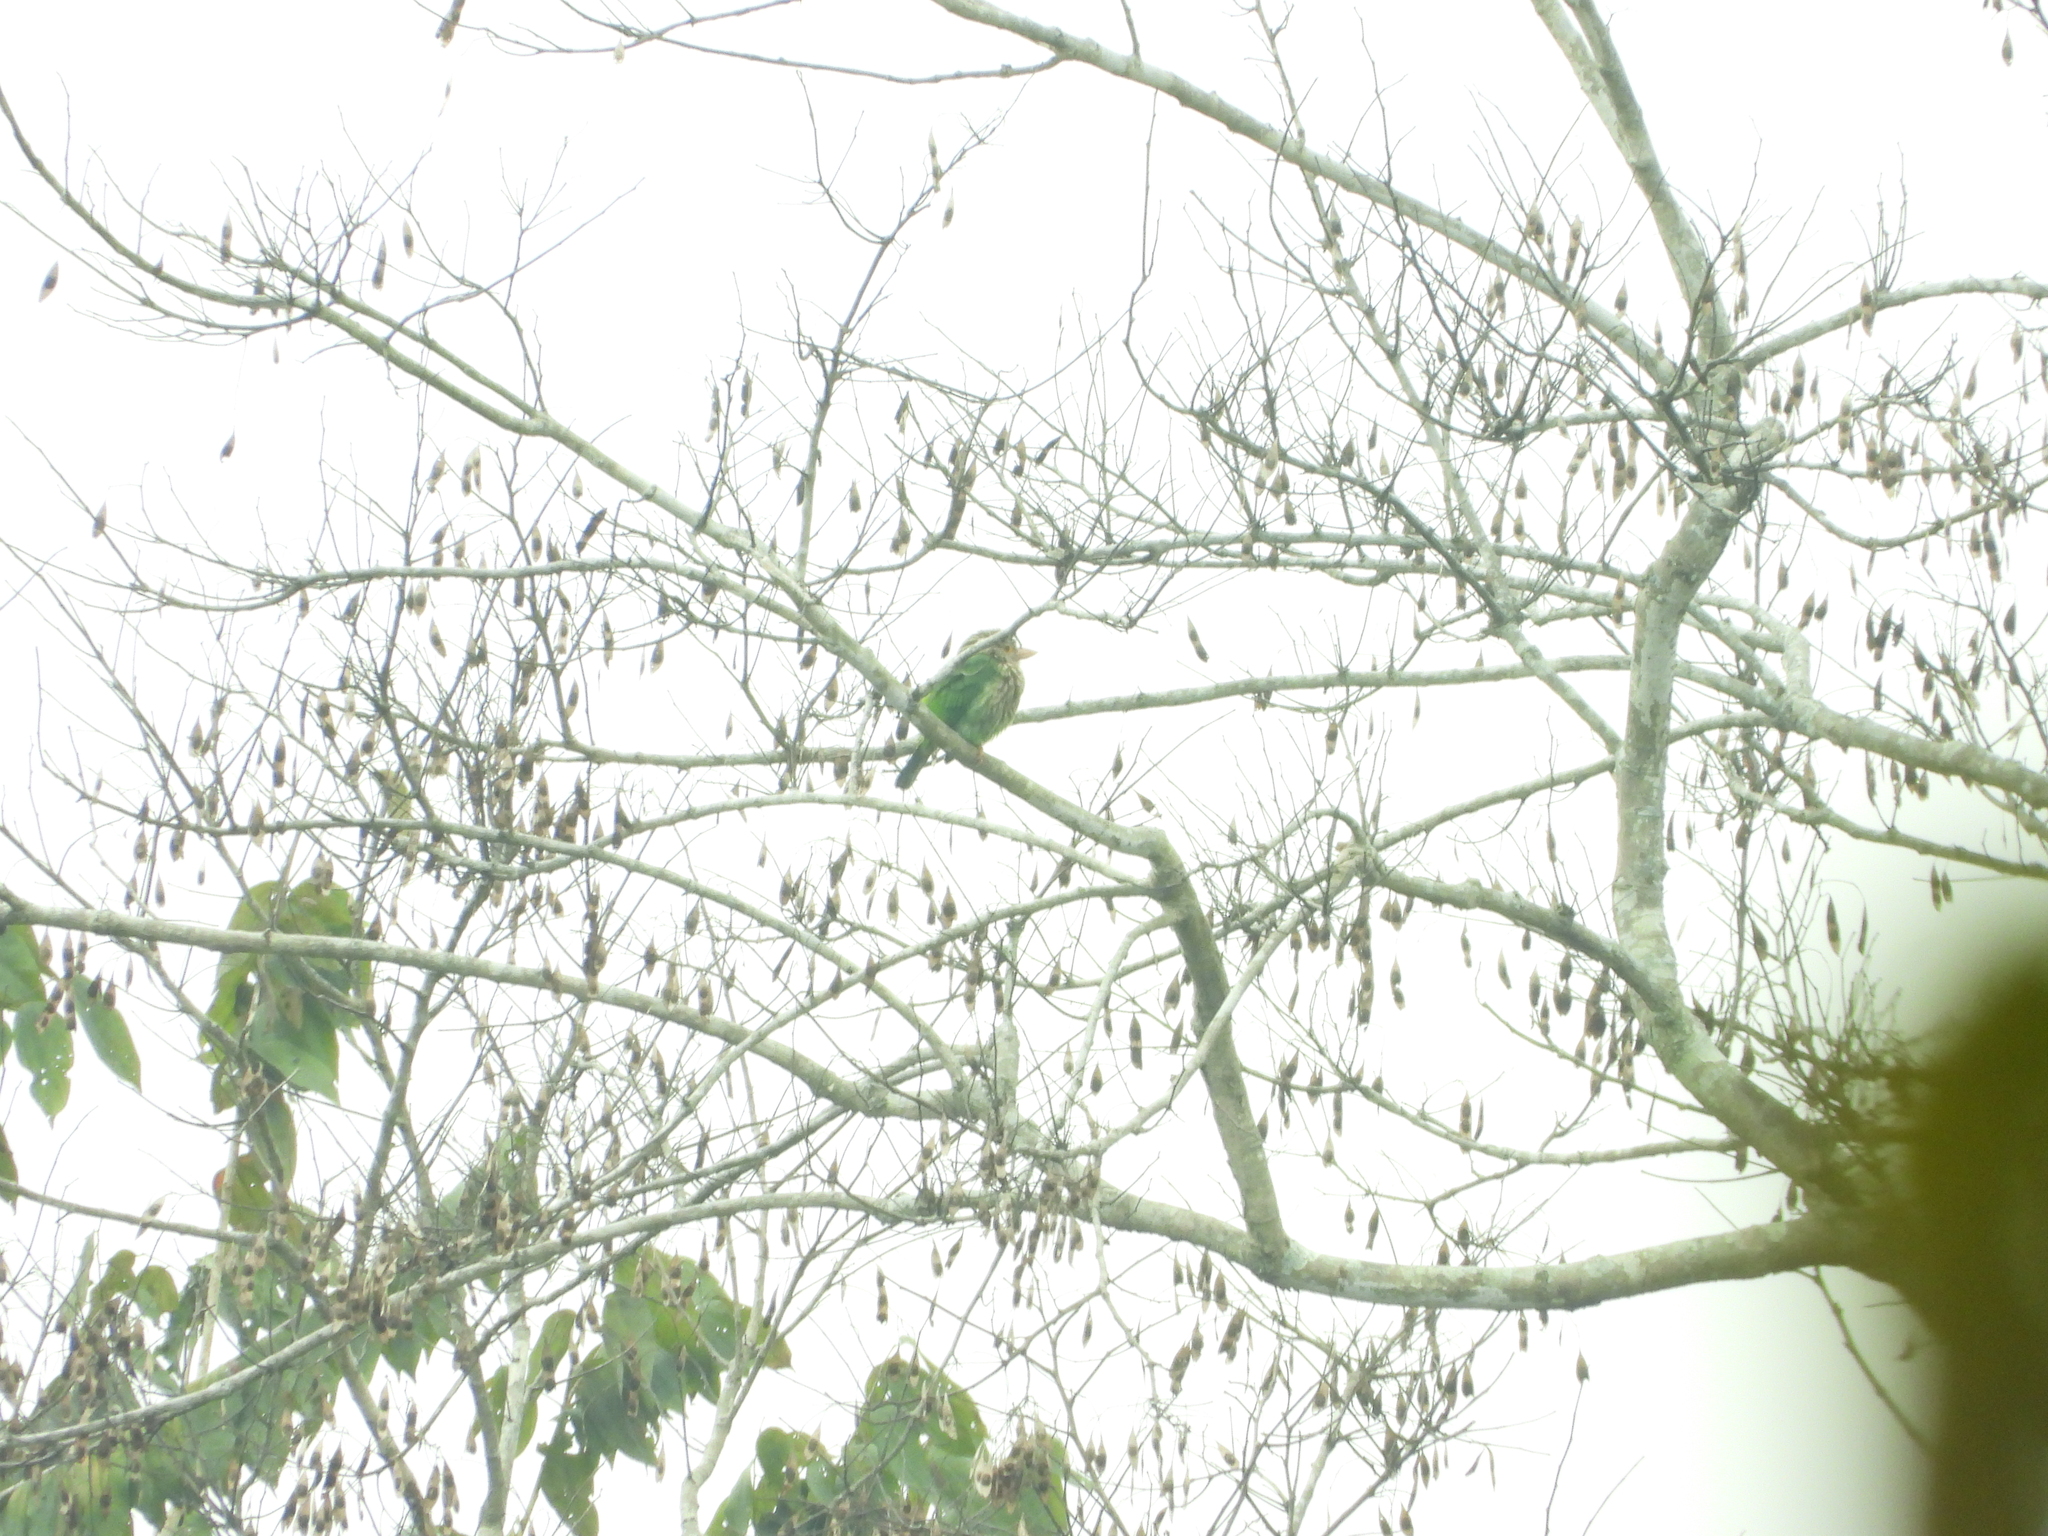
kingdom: Animalia
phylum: Chordata
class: Aves
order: Piciformes
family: Megalaimidae
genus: Psilopogon
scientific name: Psilopogon lineatus
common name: Lineated barbet
